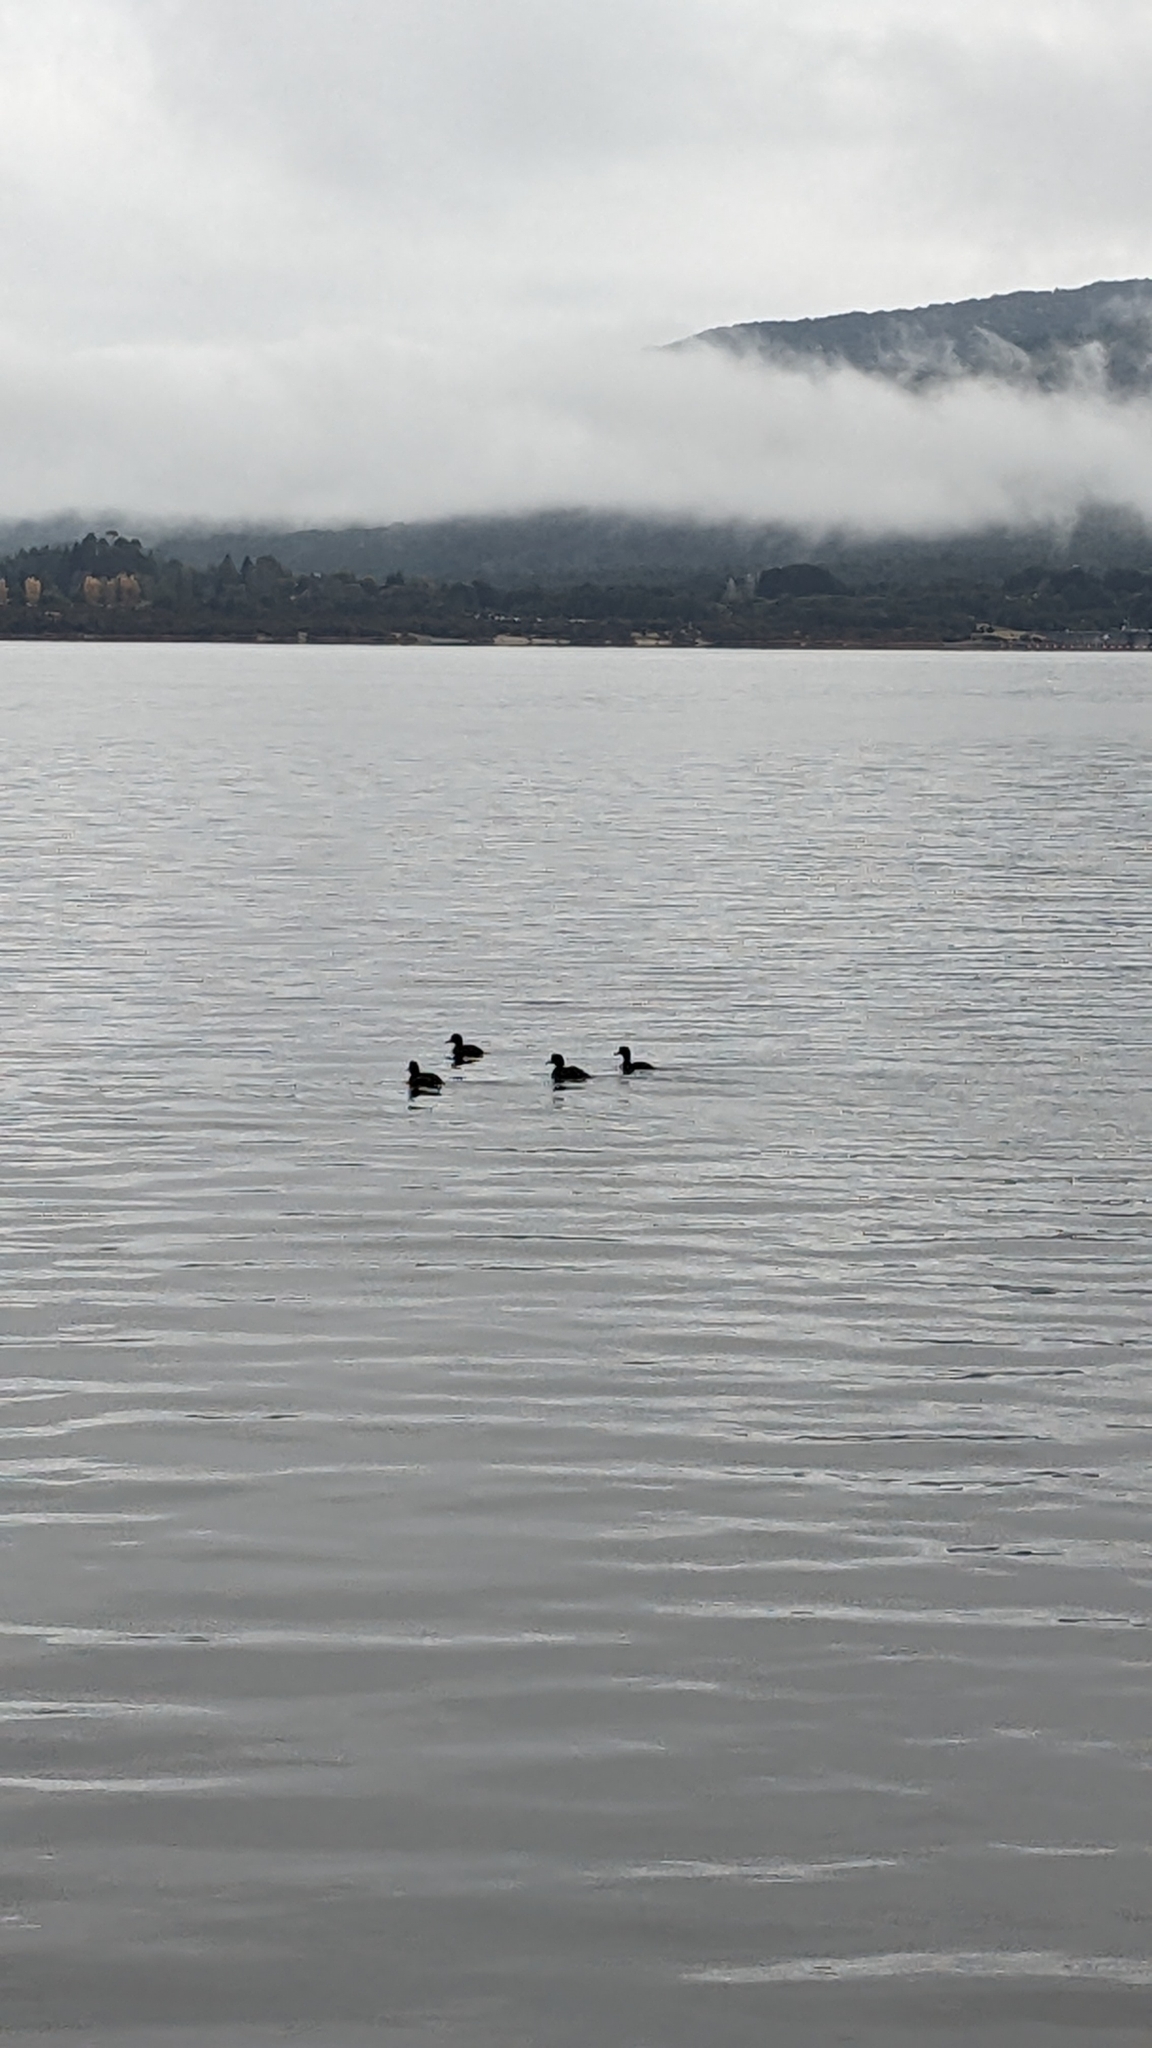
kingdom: Animalia
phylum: Chordata
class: Aves
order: Anseriformes
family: Anatidae
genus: Aythya
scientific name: Aythya novaeseelandiae
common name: New zealand scaup
